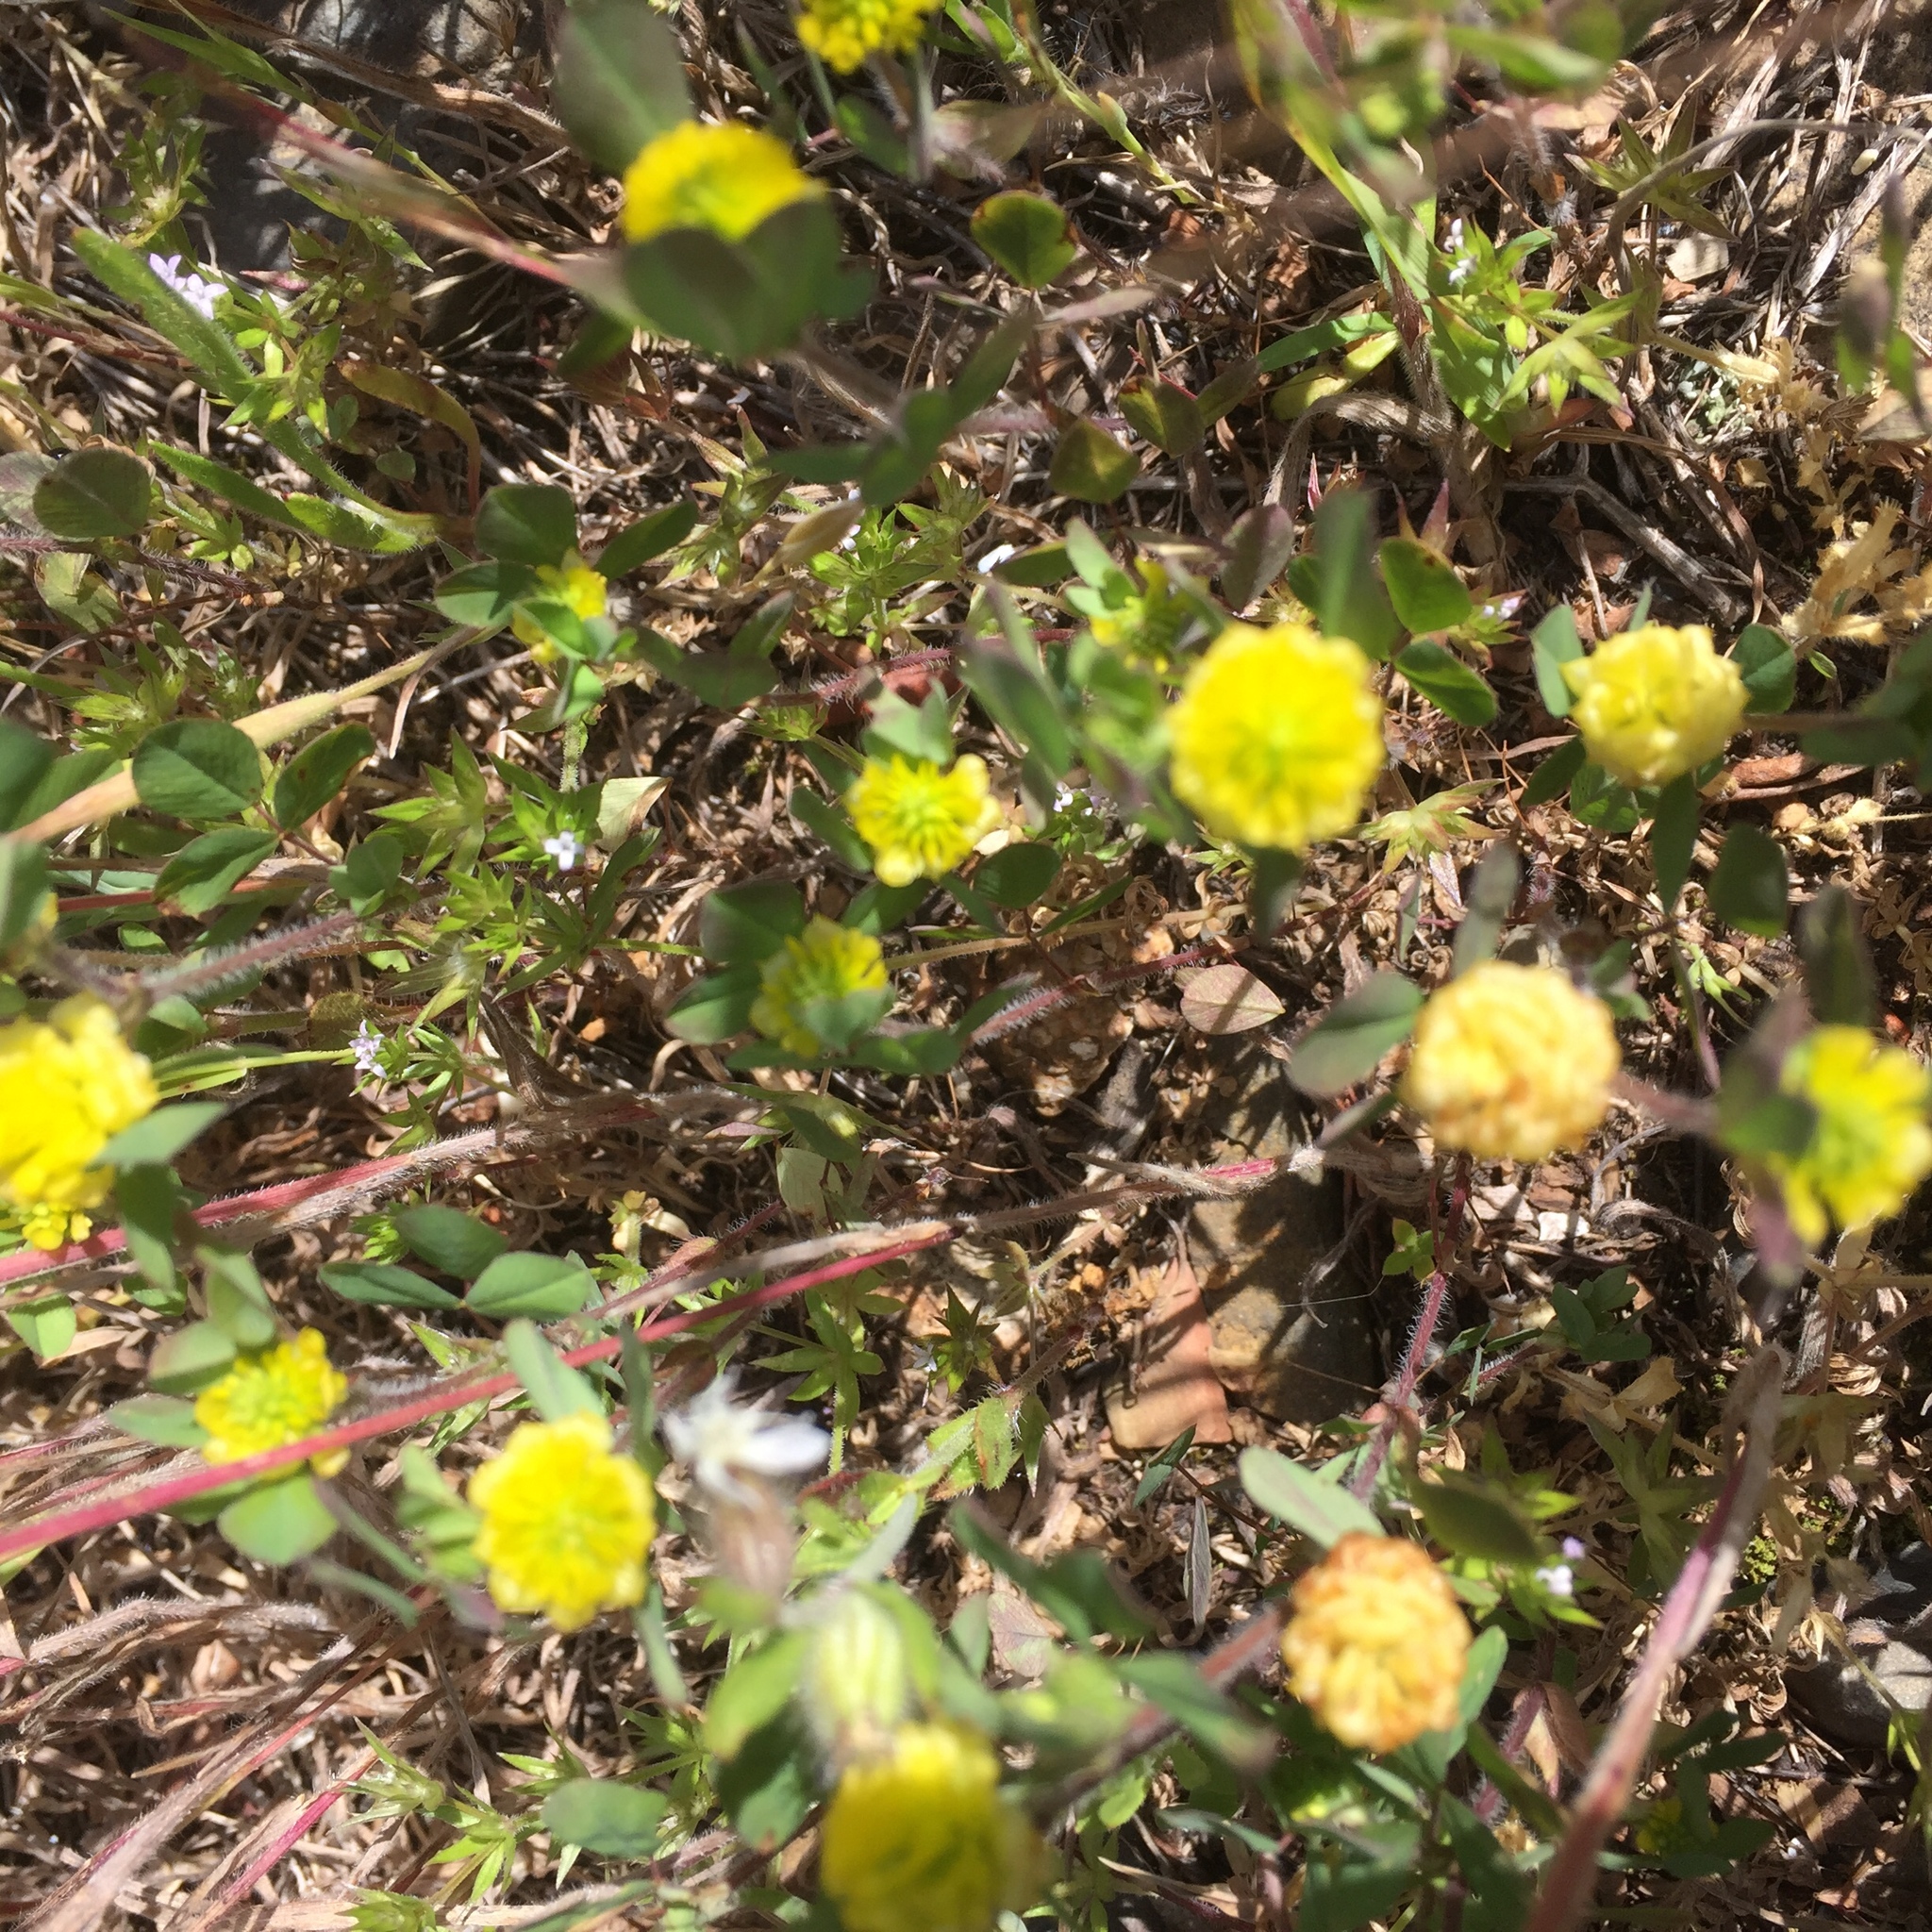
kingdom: Plantae
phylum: Tracheophyta
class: Magnoliopsida
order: Fabales
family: Fabaceae
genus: Trifolium
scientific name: Trifolium campestre
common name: Field clover
